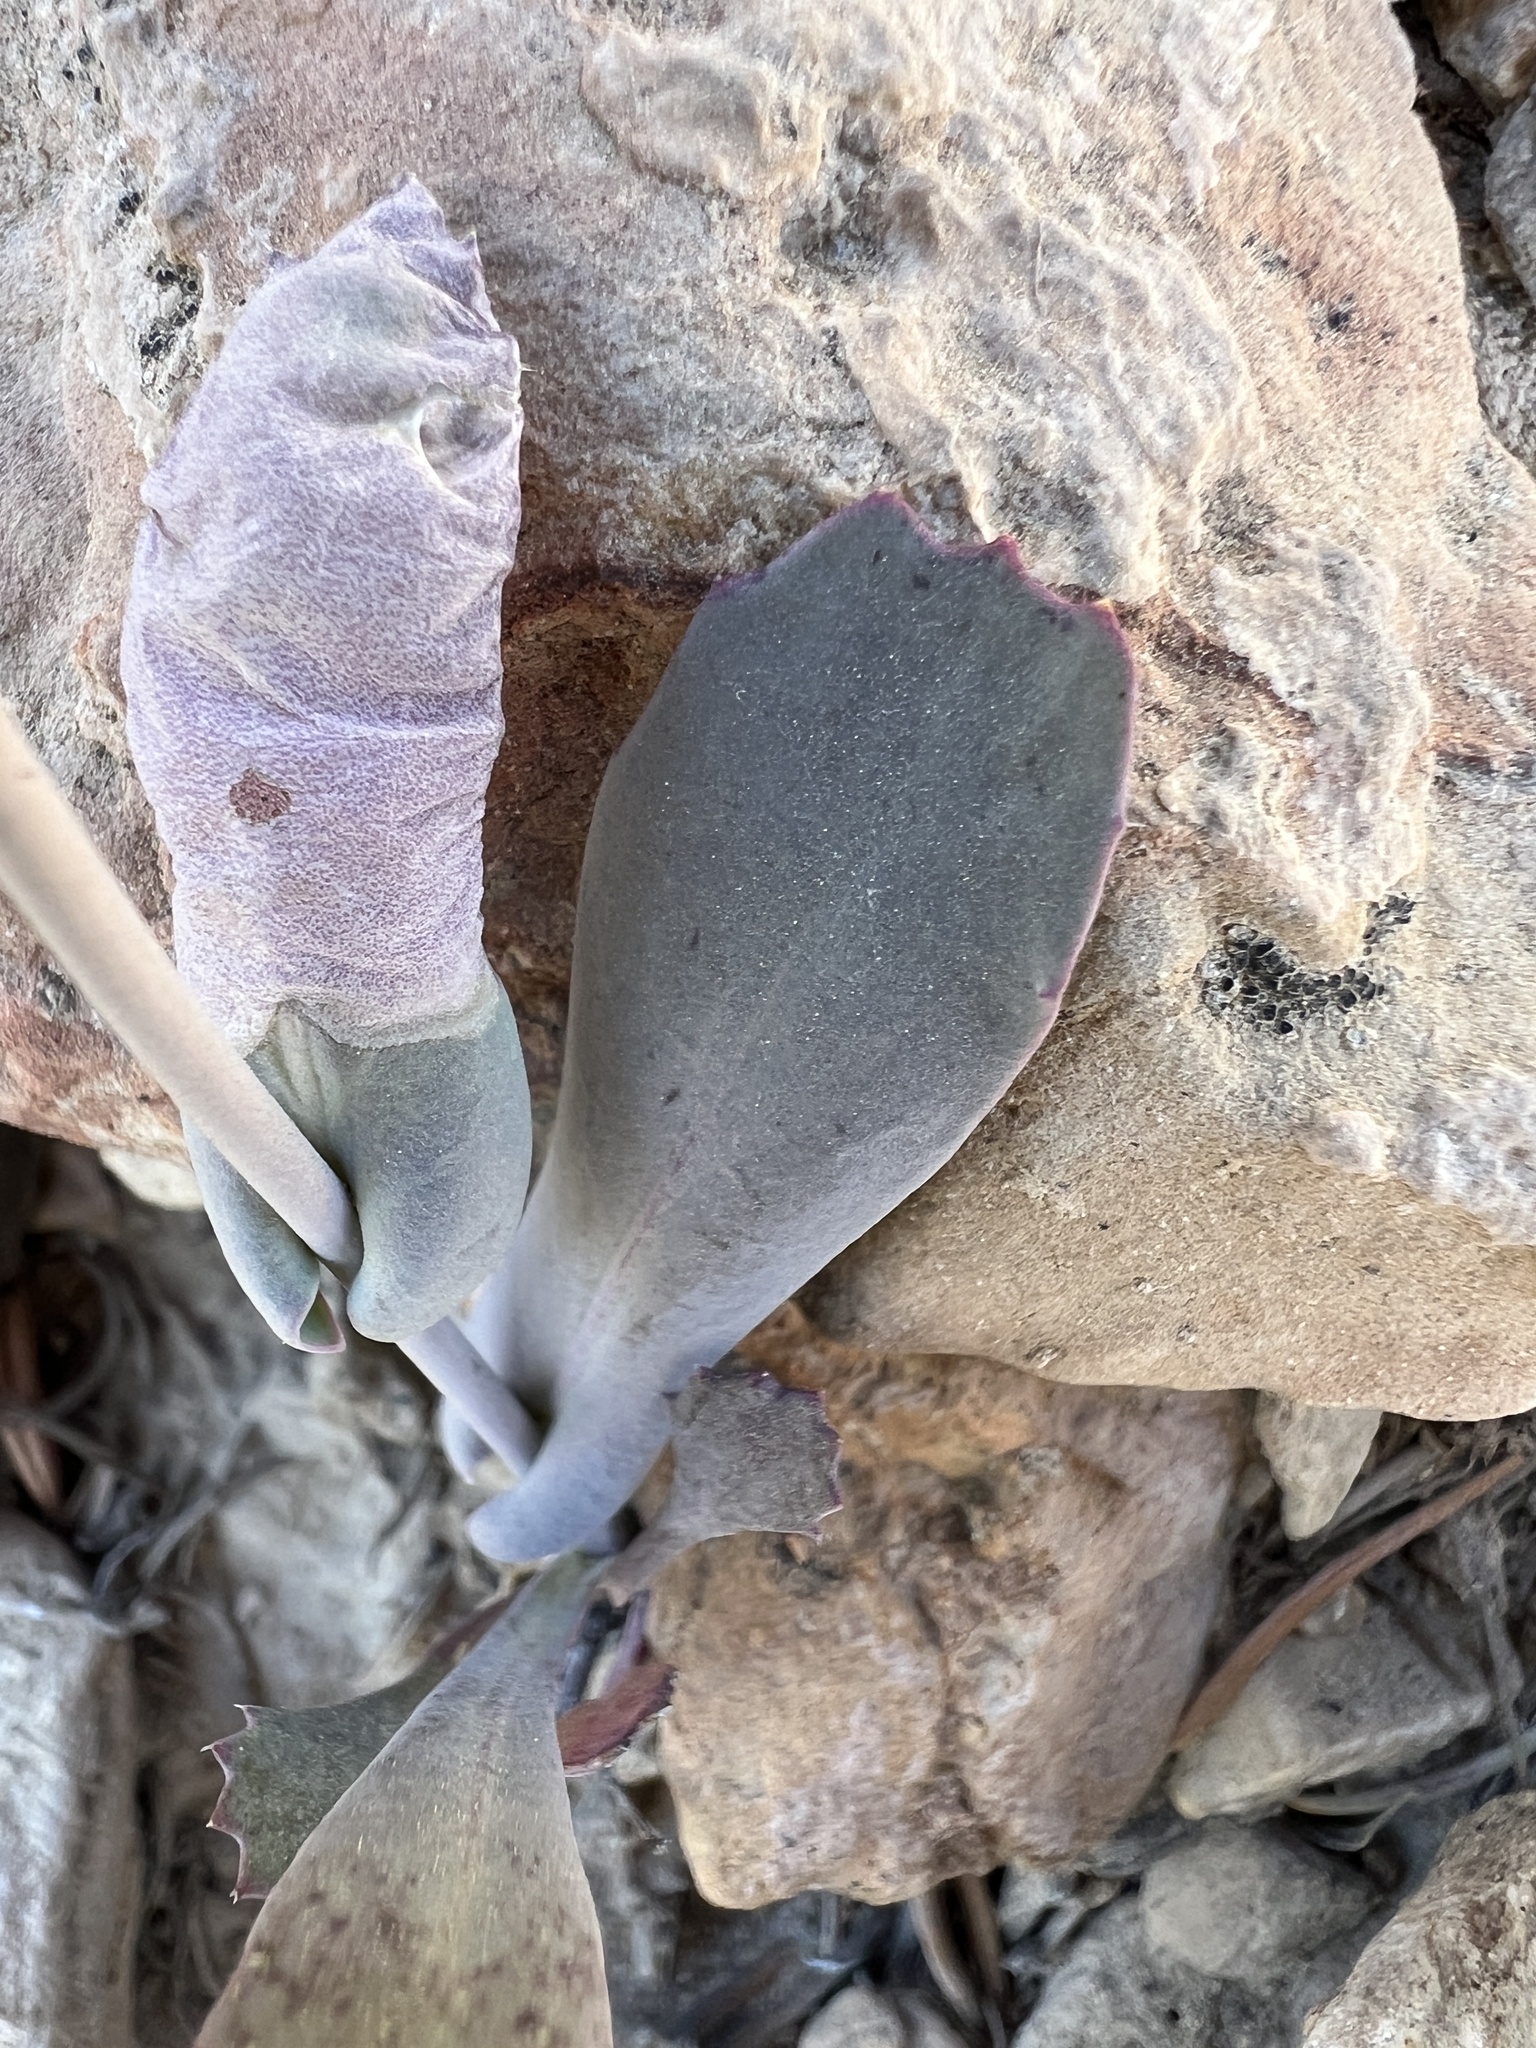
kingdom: Plantae
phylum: Tracheophyta
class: Magnoliopsida
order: Brassicales
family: Brassicaceae
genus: Streptanthus
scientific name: Streptanthus cordatus
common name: Heart-leaf jewel-flower
